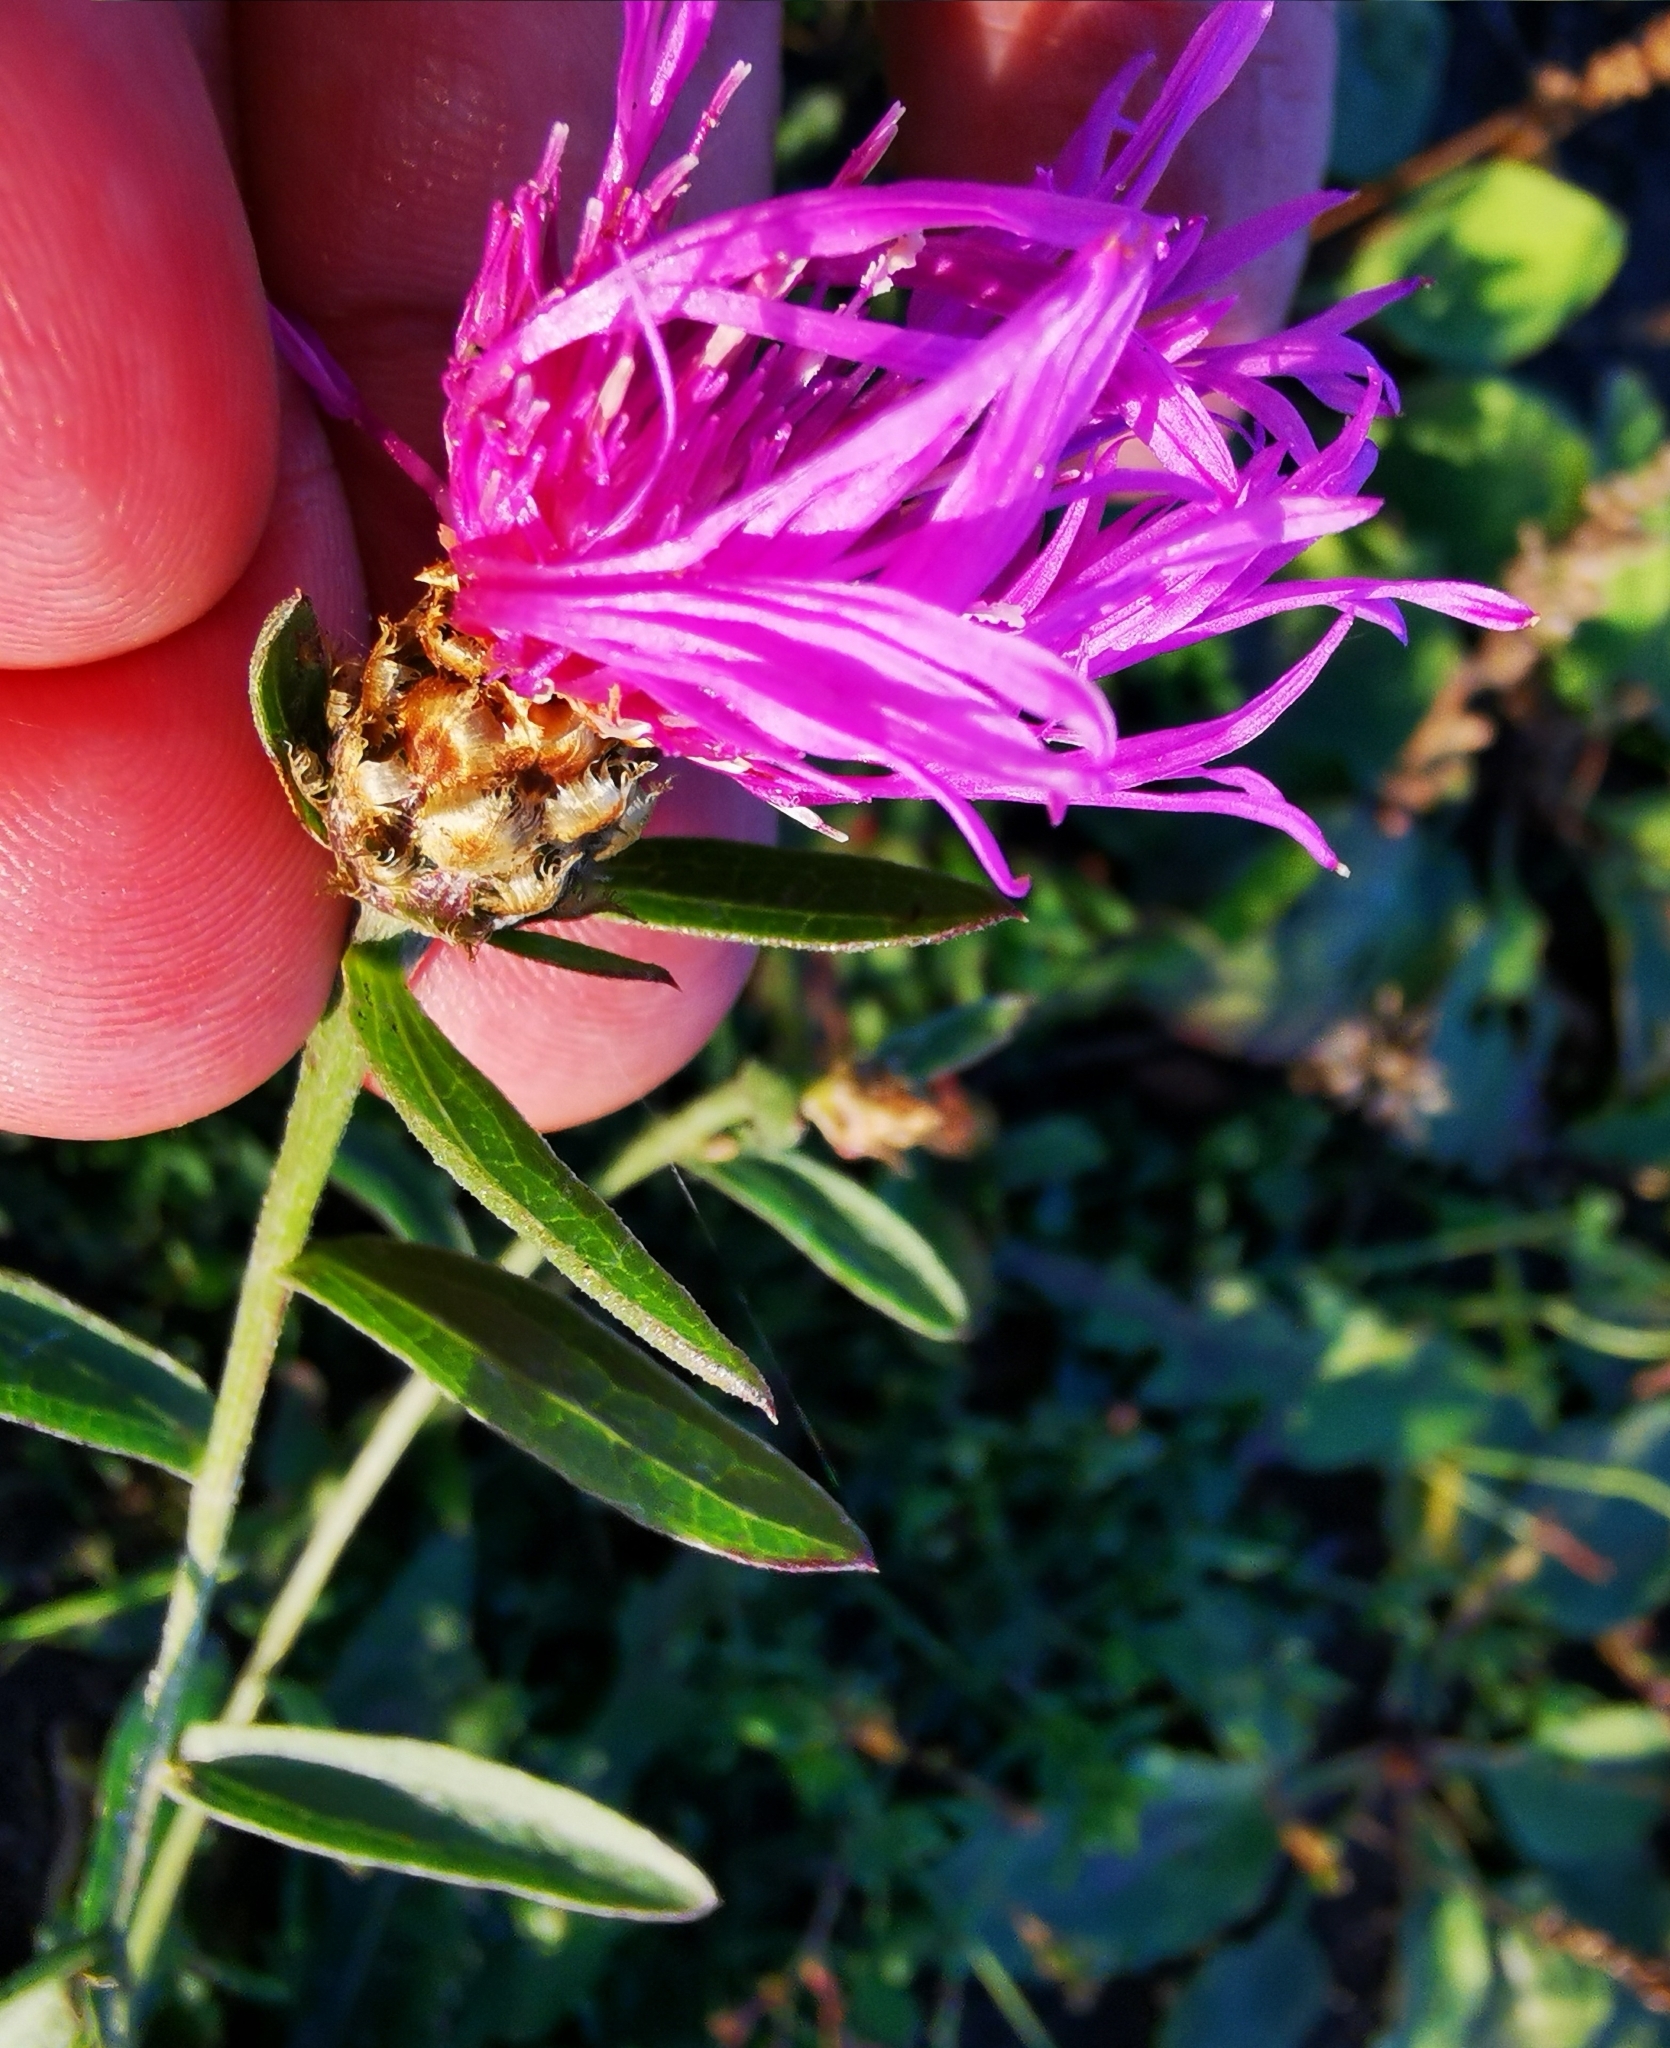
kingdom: Plantae
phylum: Tracheophyta
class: Magnoliopsida
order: Asterales
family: Asteraceae
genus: Centaurea
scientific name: Centaurea jacea
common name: Brown knapweed
